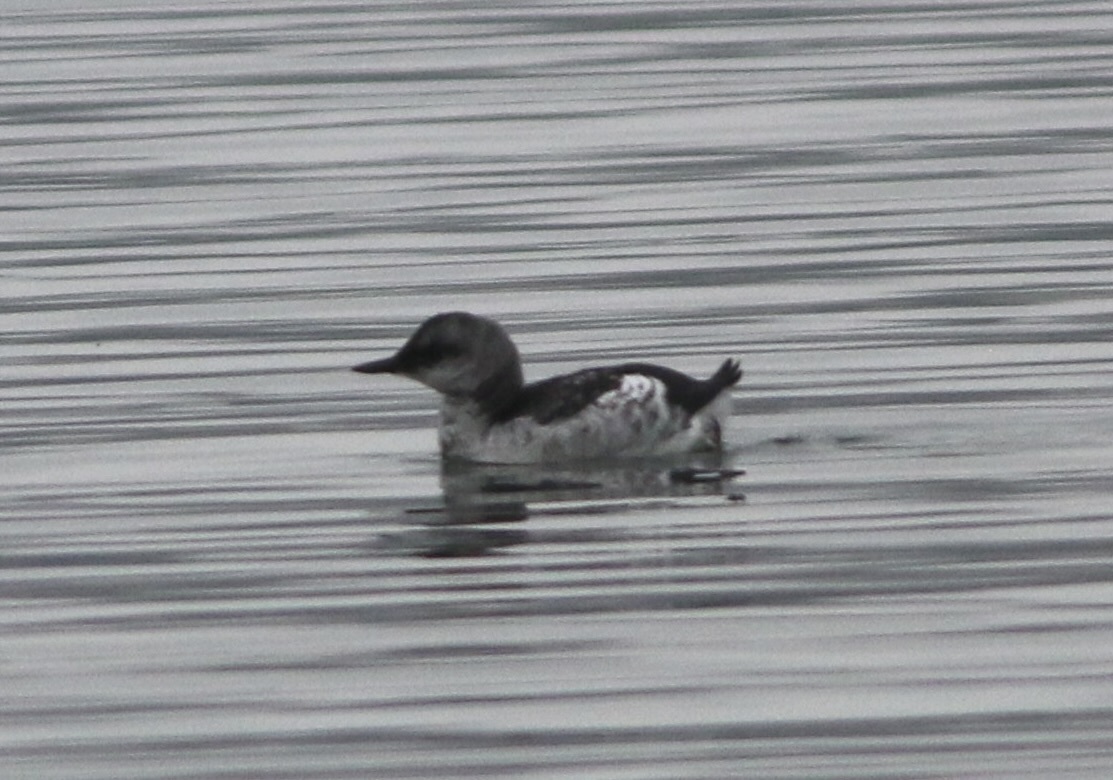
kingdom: Animalia
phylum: Chordata
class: Aves
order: Charadriiformes
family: Alcidae
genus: Cepphus
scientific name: Cepphus columba
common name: Pigeon guillemot
